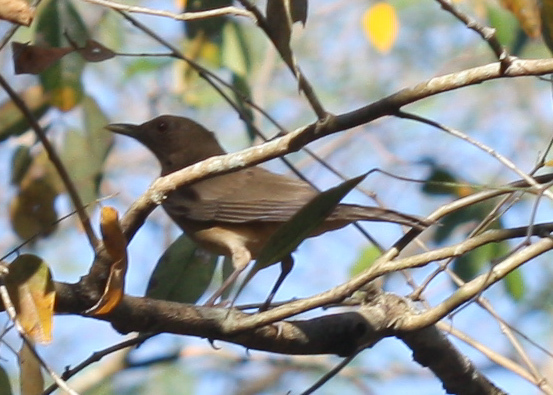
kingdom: Animalia
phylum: Chordata
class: Aves
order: Passeriformes
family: Turdidae
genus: Turdus
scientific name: Turdus grayi
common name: Clay-colored thrush
